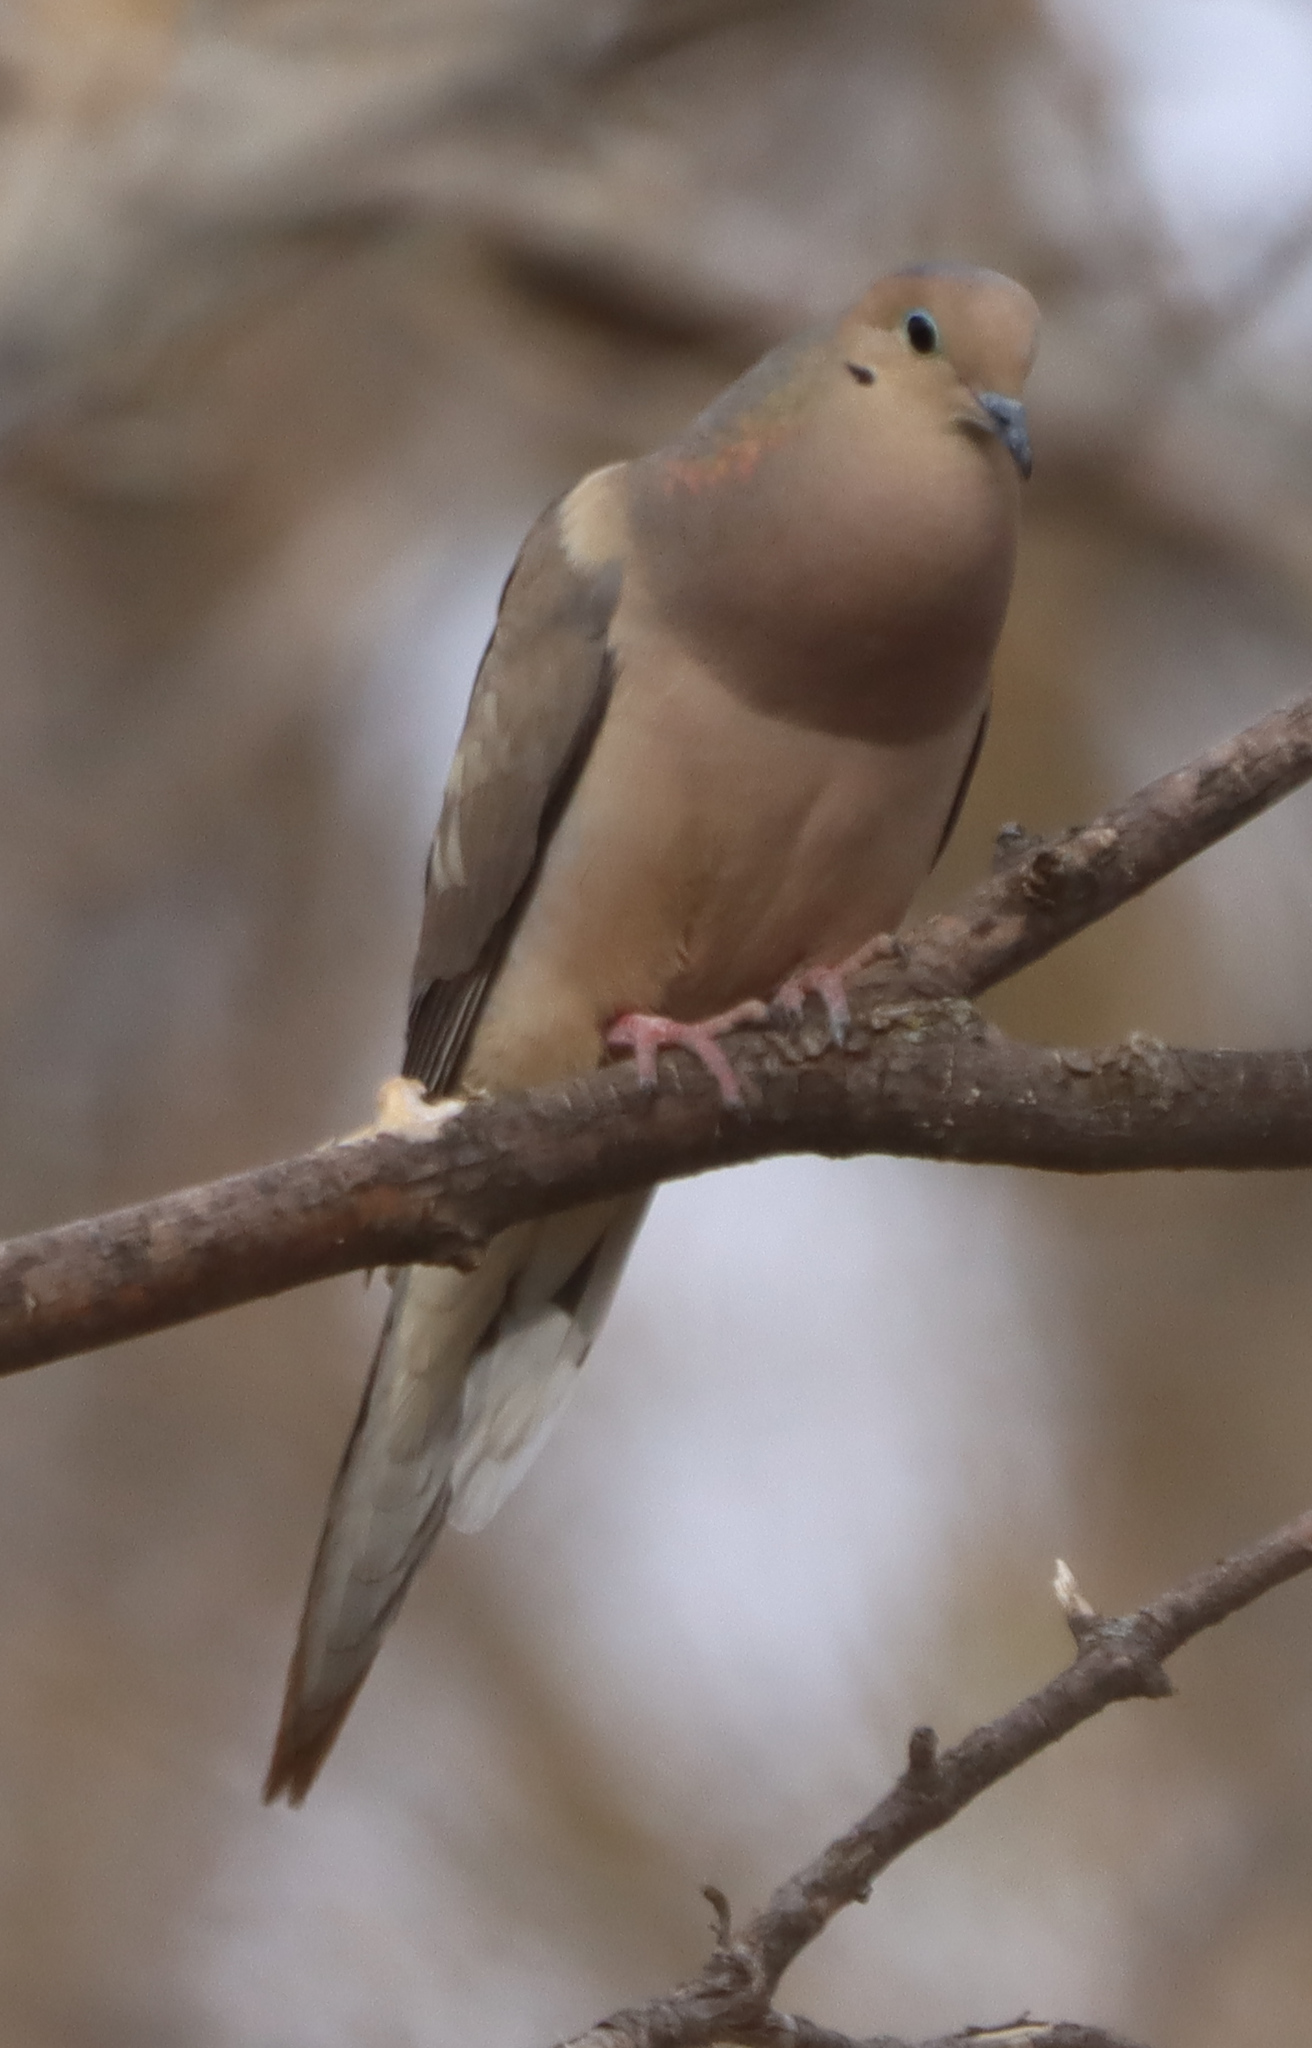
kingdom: Animalia
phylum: Chordata
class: Aves
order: Columbiformes
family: Columbidae
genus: Zenaida
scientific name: Zenaida macroura
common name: Mourning dove
